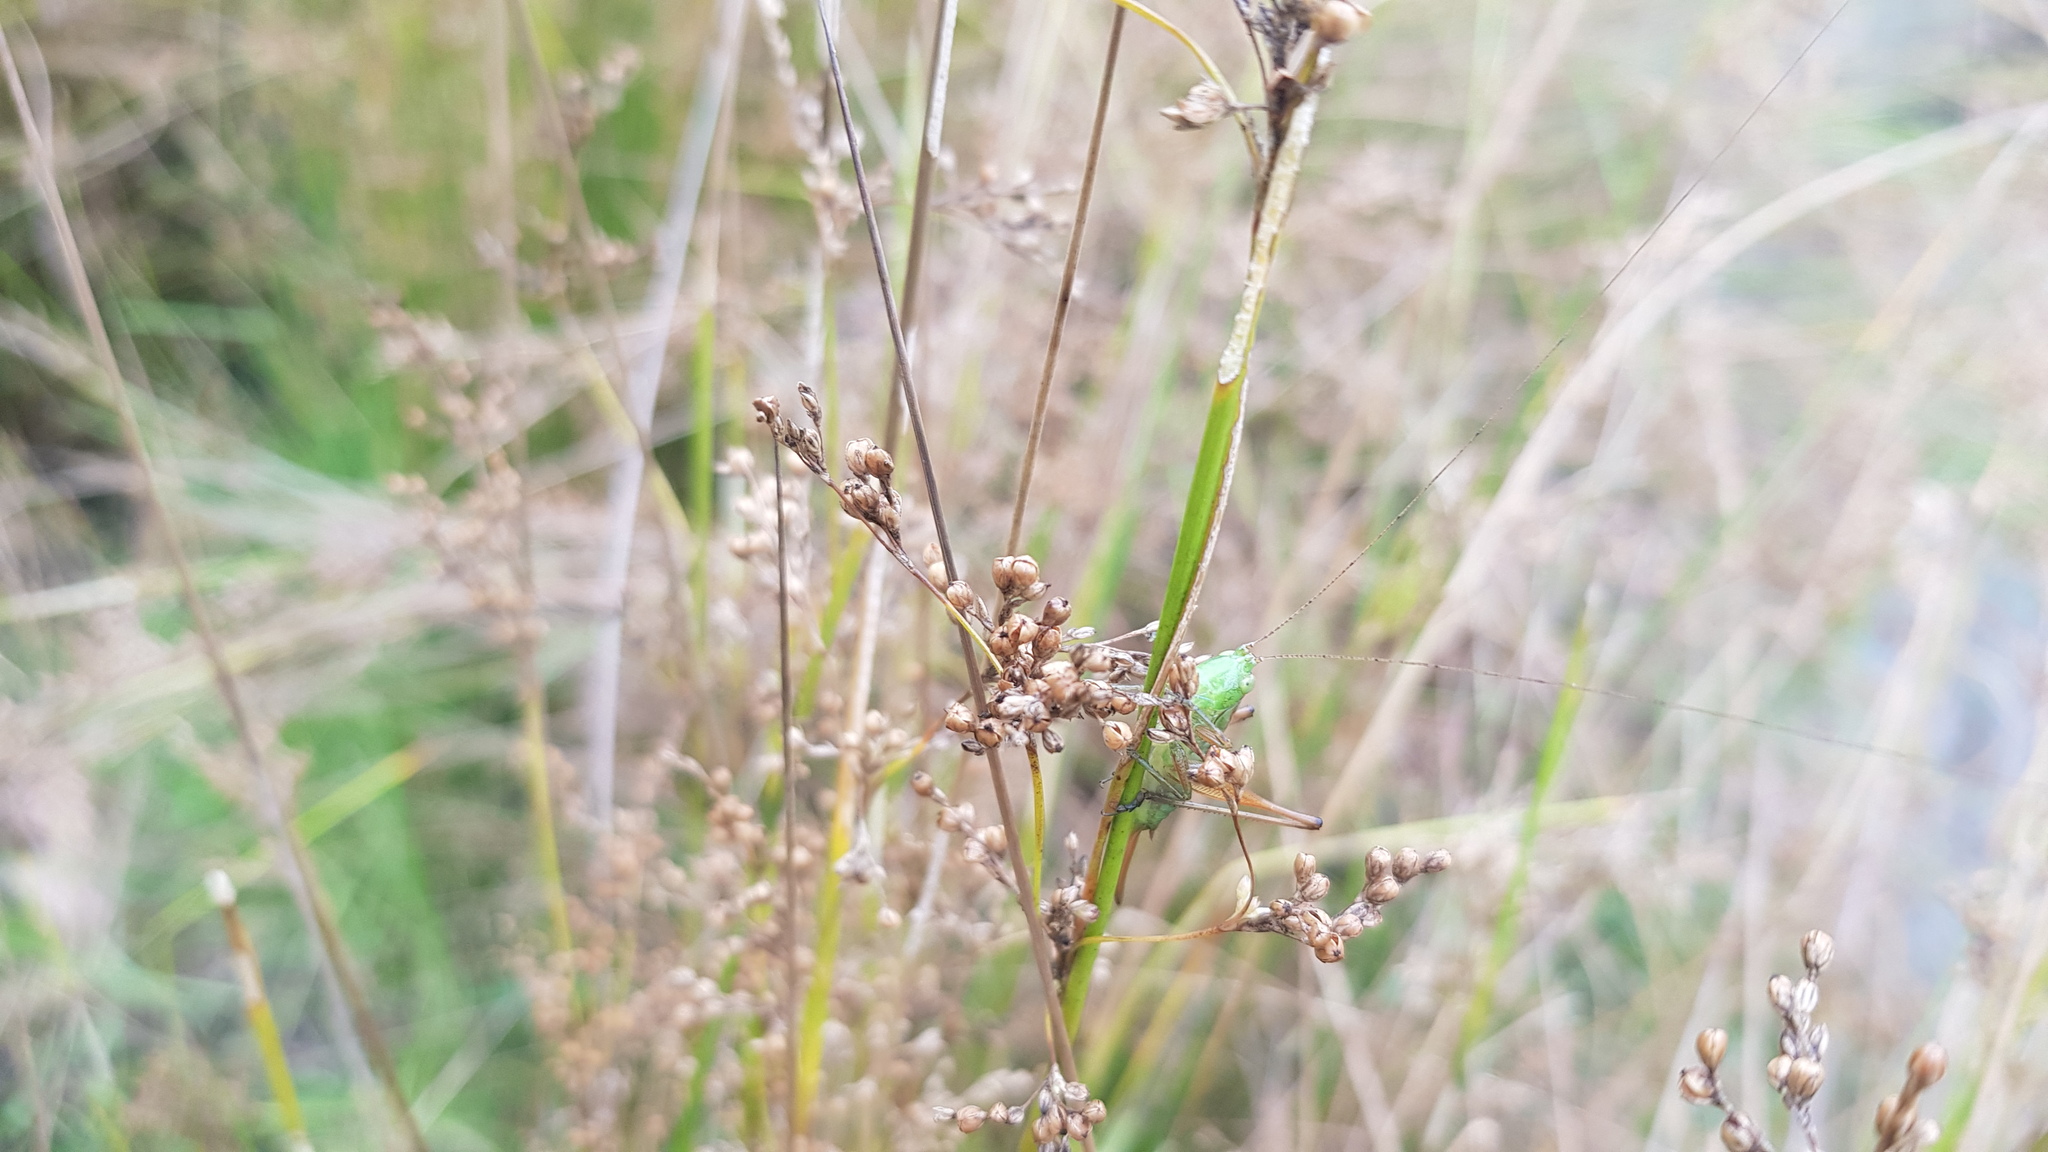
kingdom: Animalia
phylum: Arthropoda
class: Insecta
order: Orthoptera
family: Tettigoniidae
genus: Conocephalus
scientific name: Conocephalus semivittatus
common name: Blackish meadow katydid
